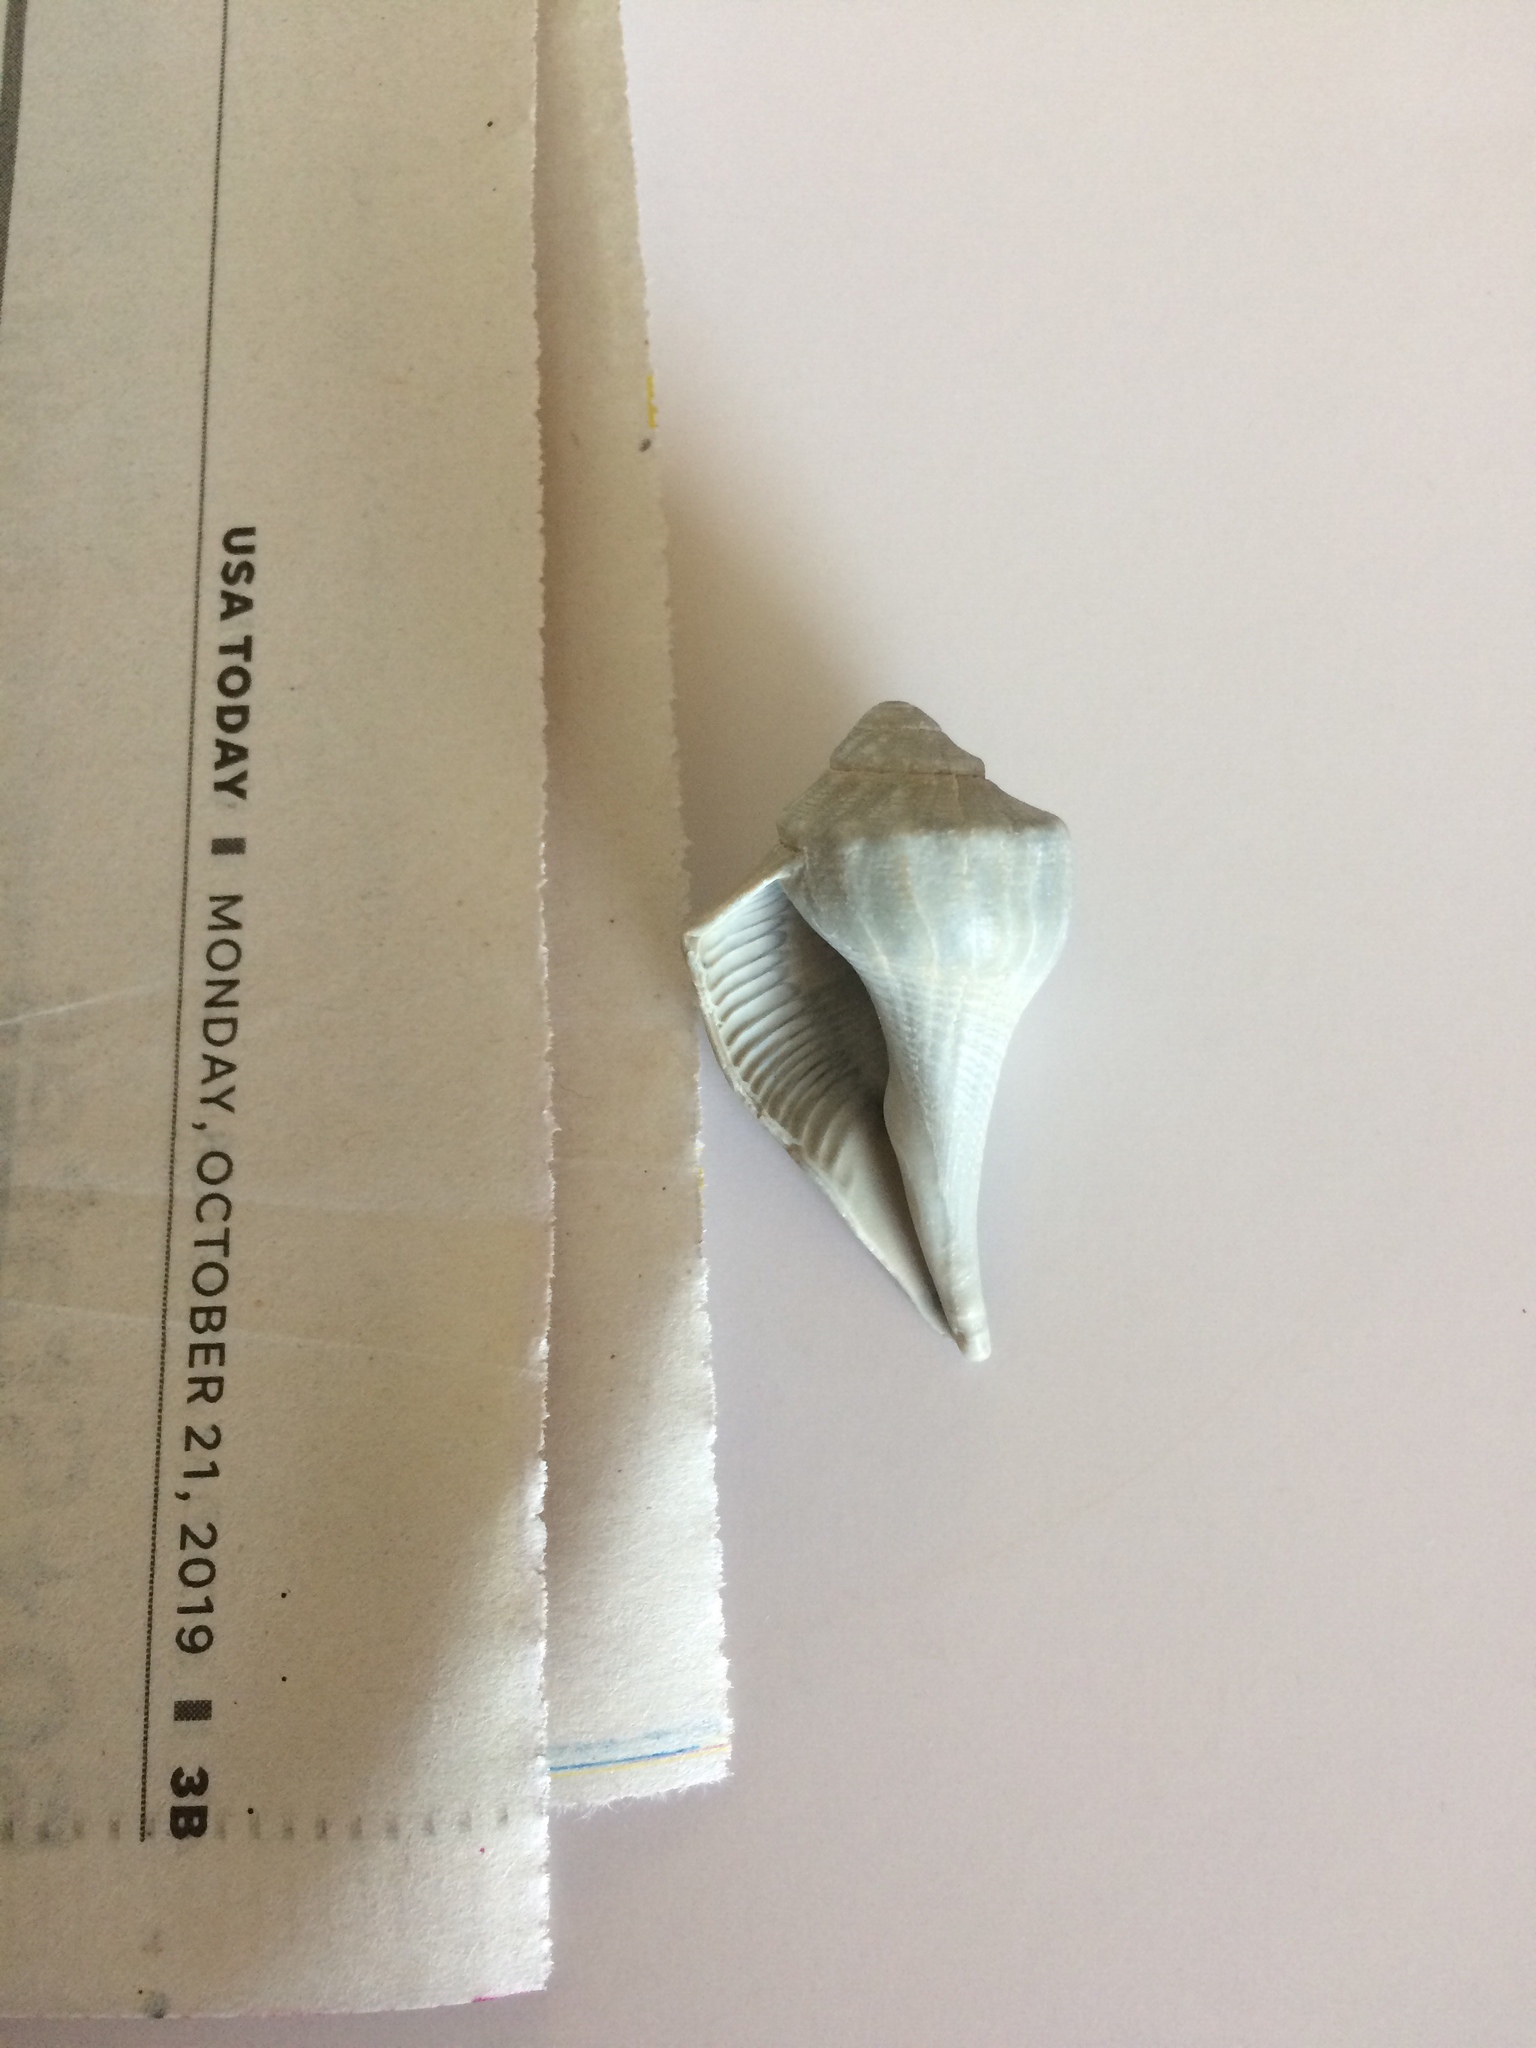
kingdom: Animalia
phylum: Mollusca
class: Gastropoda
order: Neogastropoda
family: Busyconidae
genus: Sinistrofulgur
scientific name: Sinistrofulgur sinistrum
